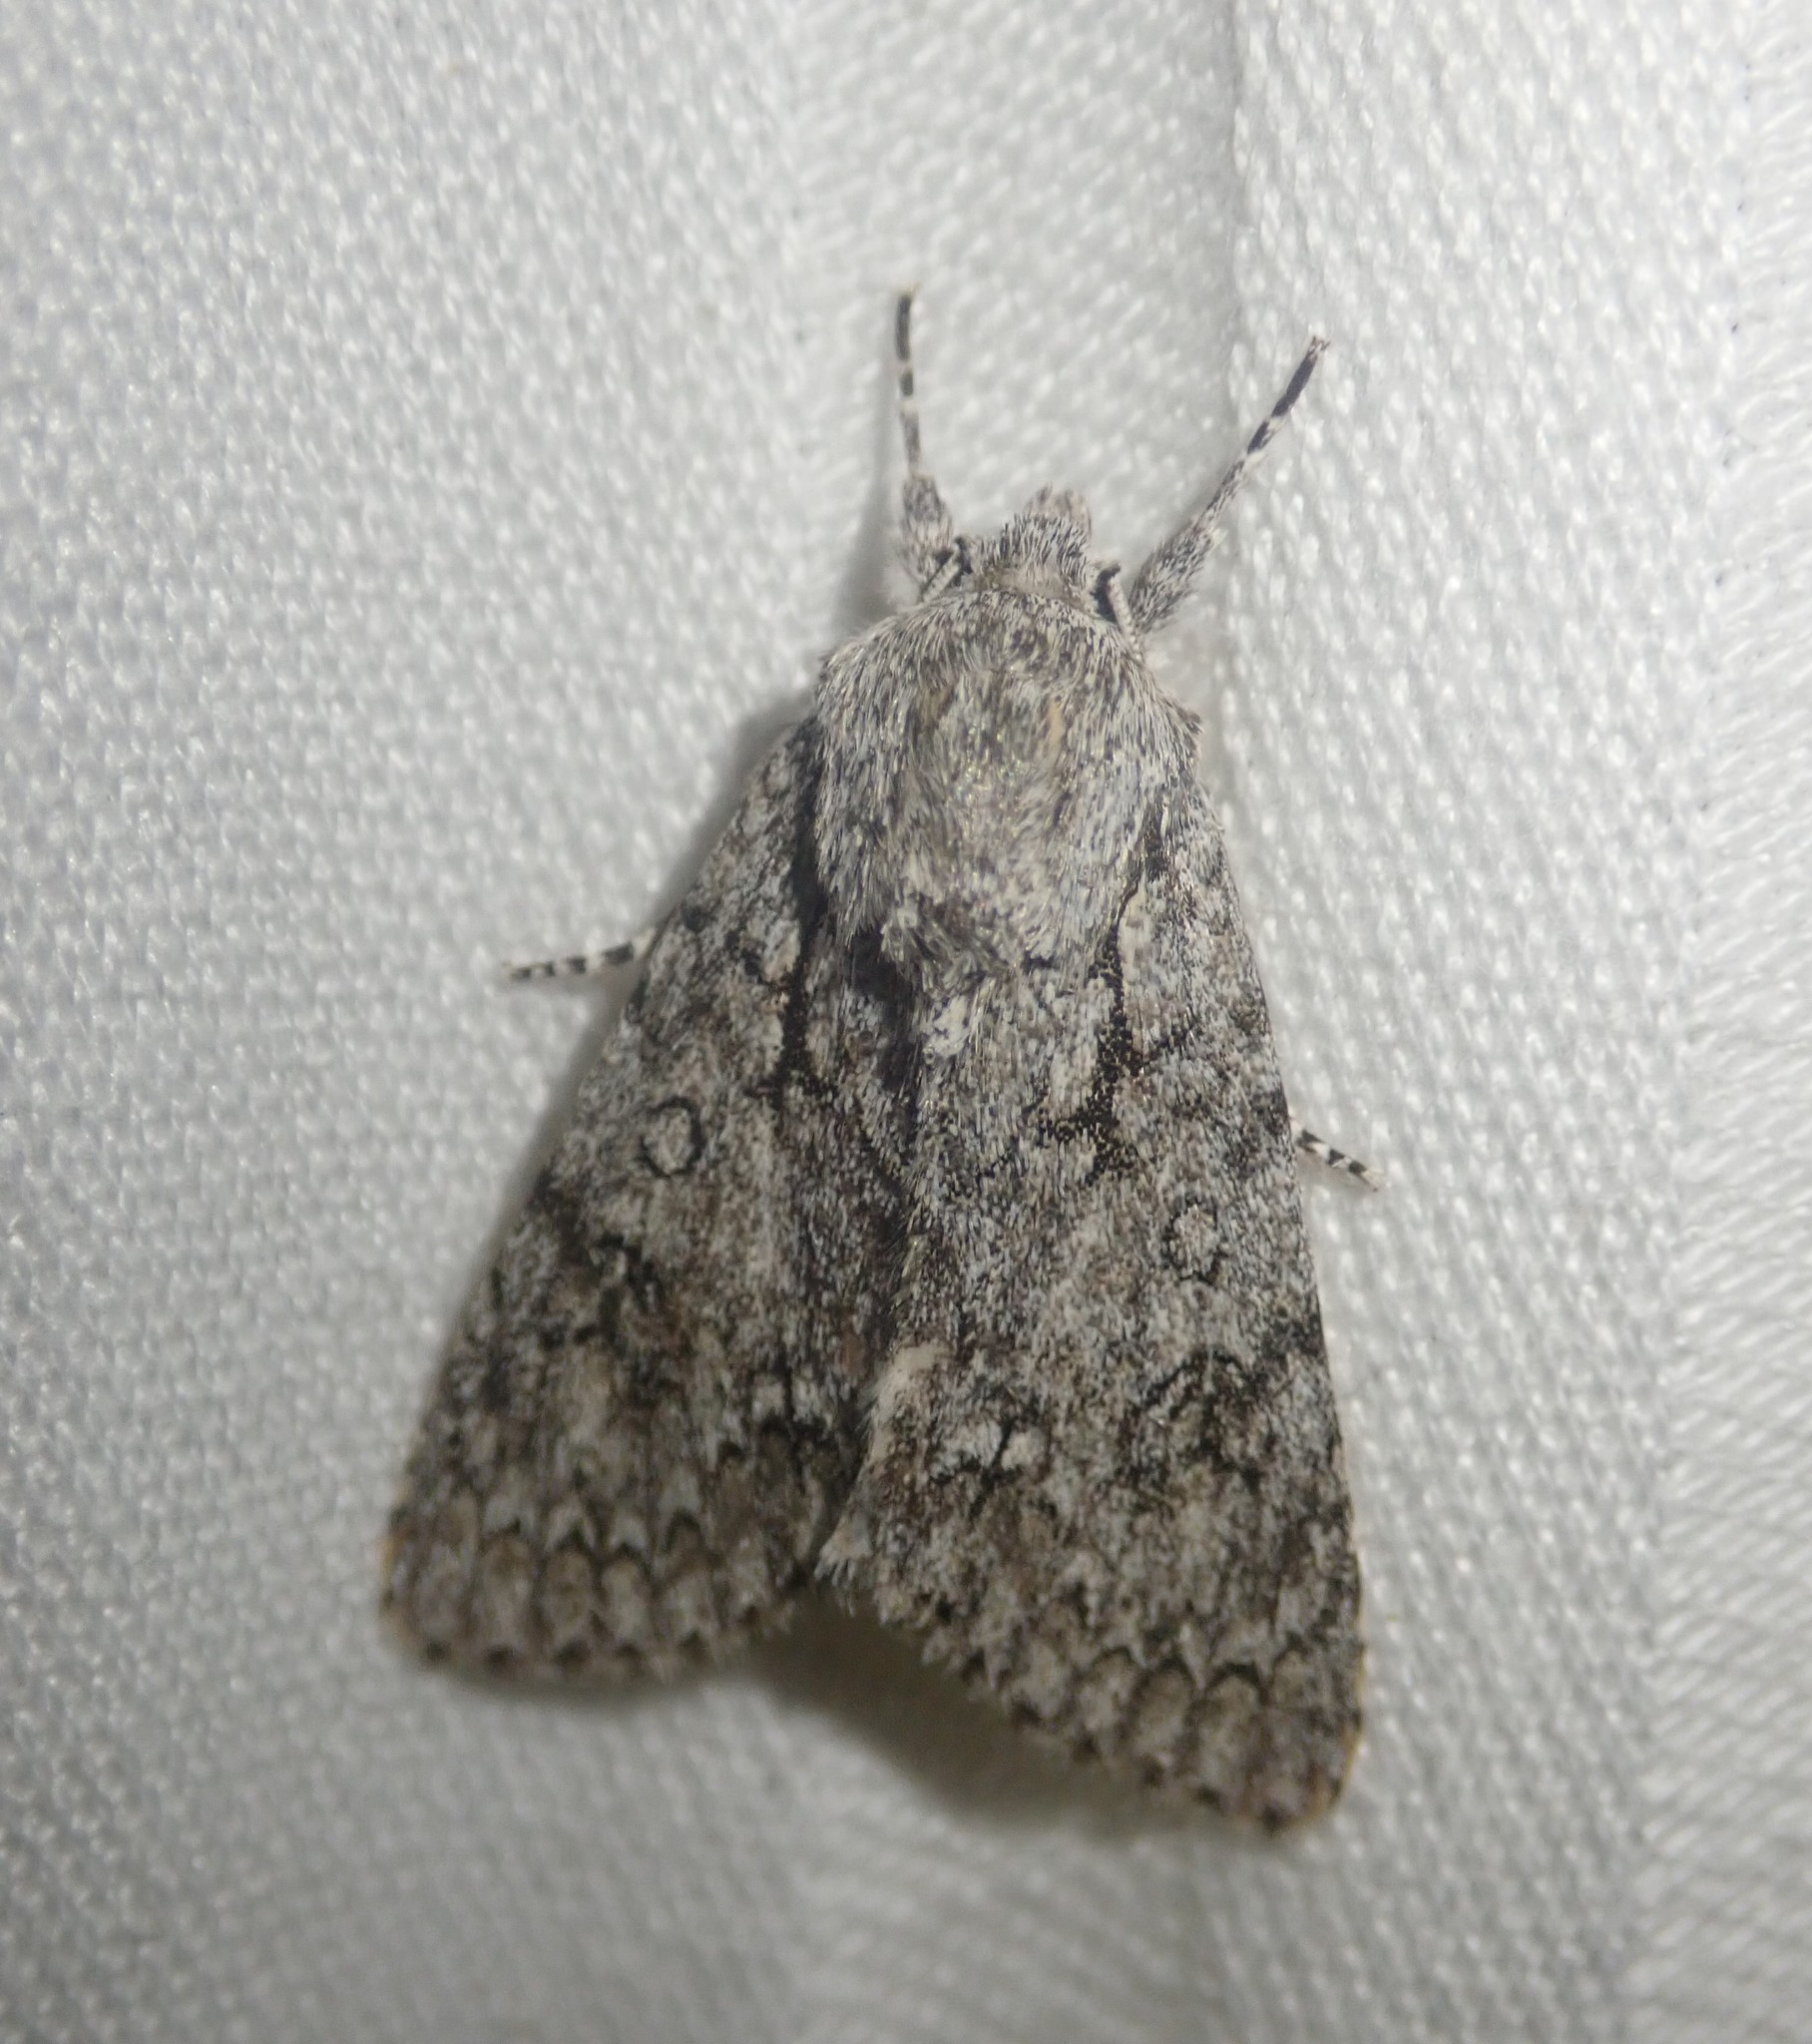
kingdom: Animalia
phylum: Arthropoda
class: Insecta
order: Lepidoptera
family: Noctuidae
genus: Acronicta
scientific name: Acronicta aceris
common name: Sycamore
